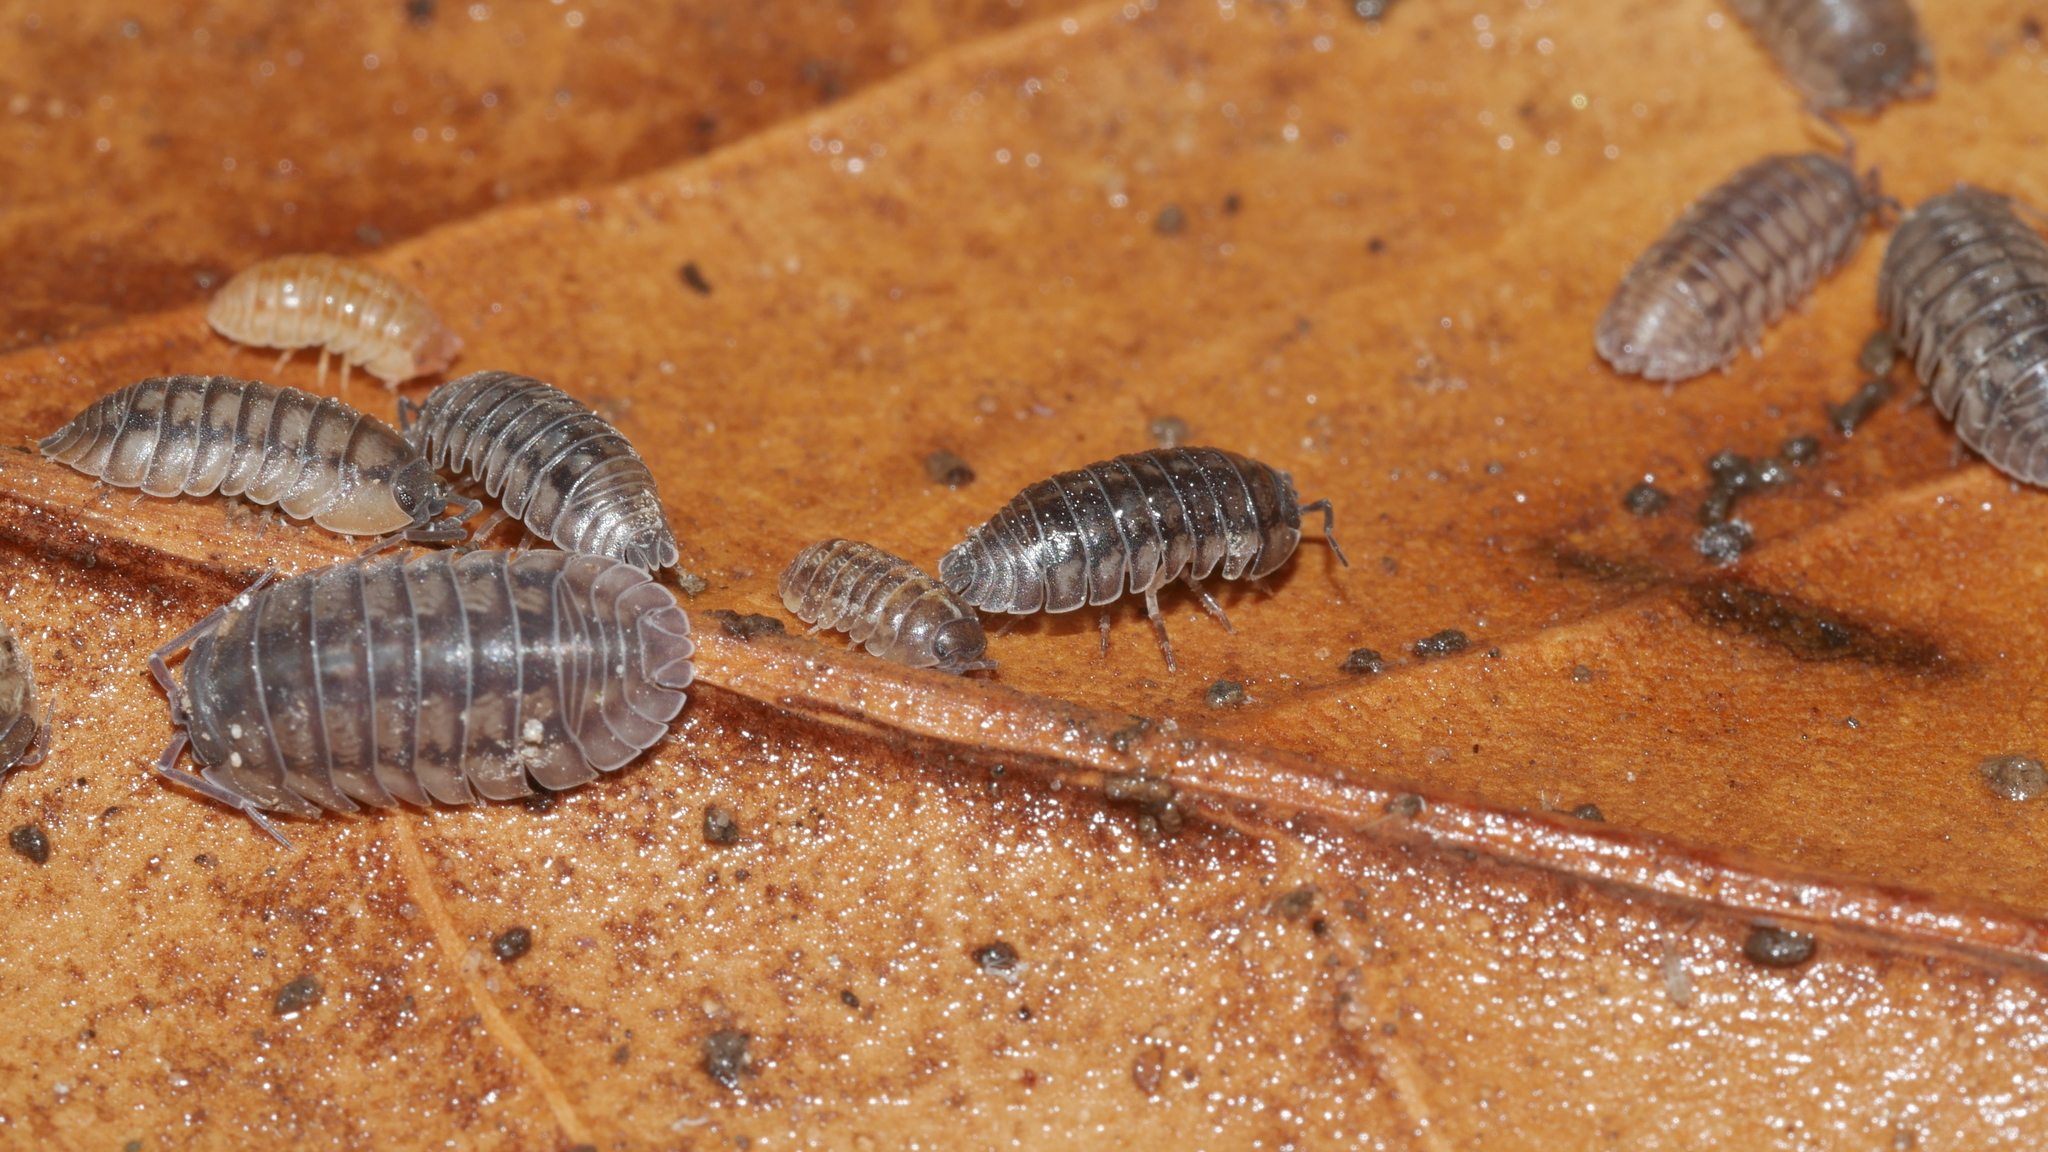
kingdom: Animalia
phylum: Arthropoda
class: Malacostraca
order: Isopoda
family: Armadillidiidae
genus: Armadillidium
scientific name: Armadillidium nasatum
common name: Isopod
